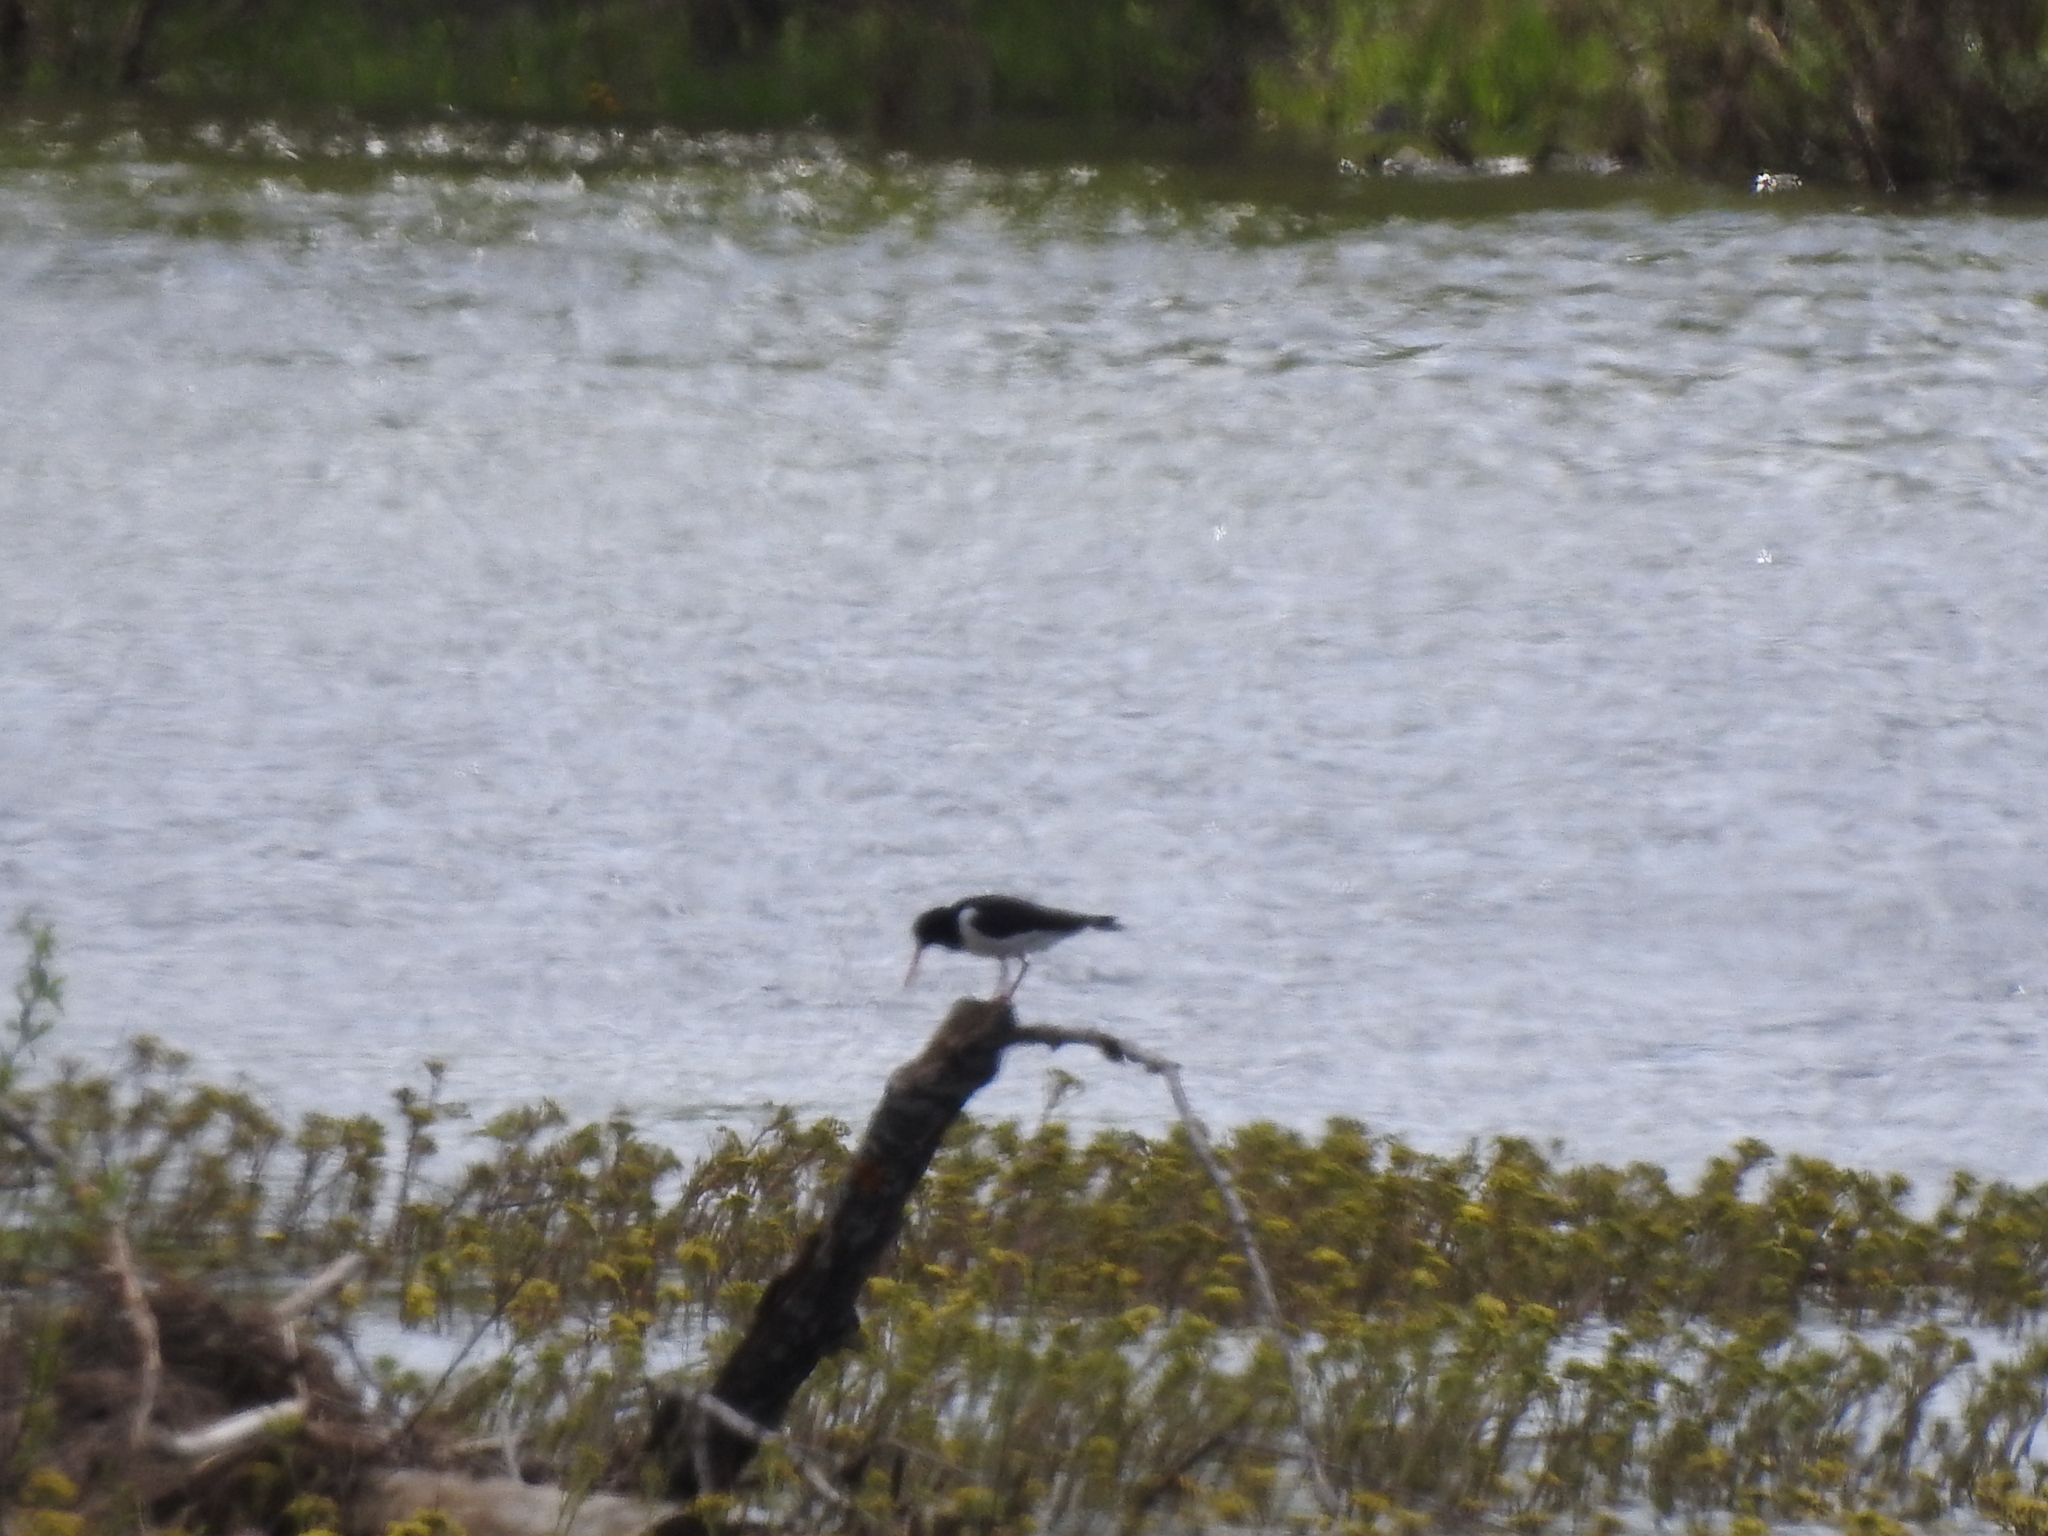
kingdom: Animalia
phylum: Chordata
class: Aves
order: Charadriiformes
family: Haematopodidae
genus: Haematopus
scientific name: Haematopus ostralegus
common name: Eurasian oystercatcher
